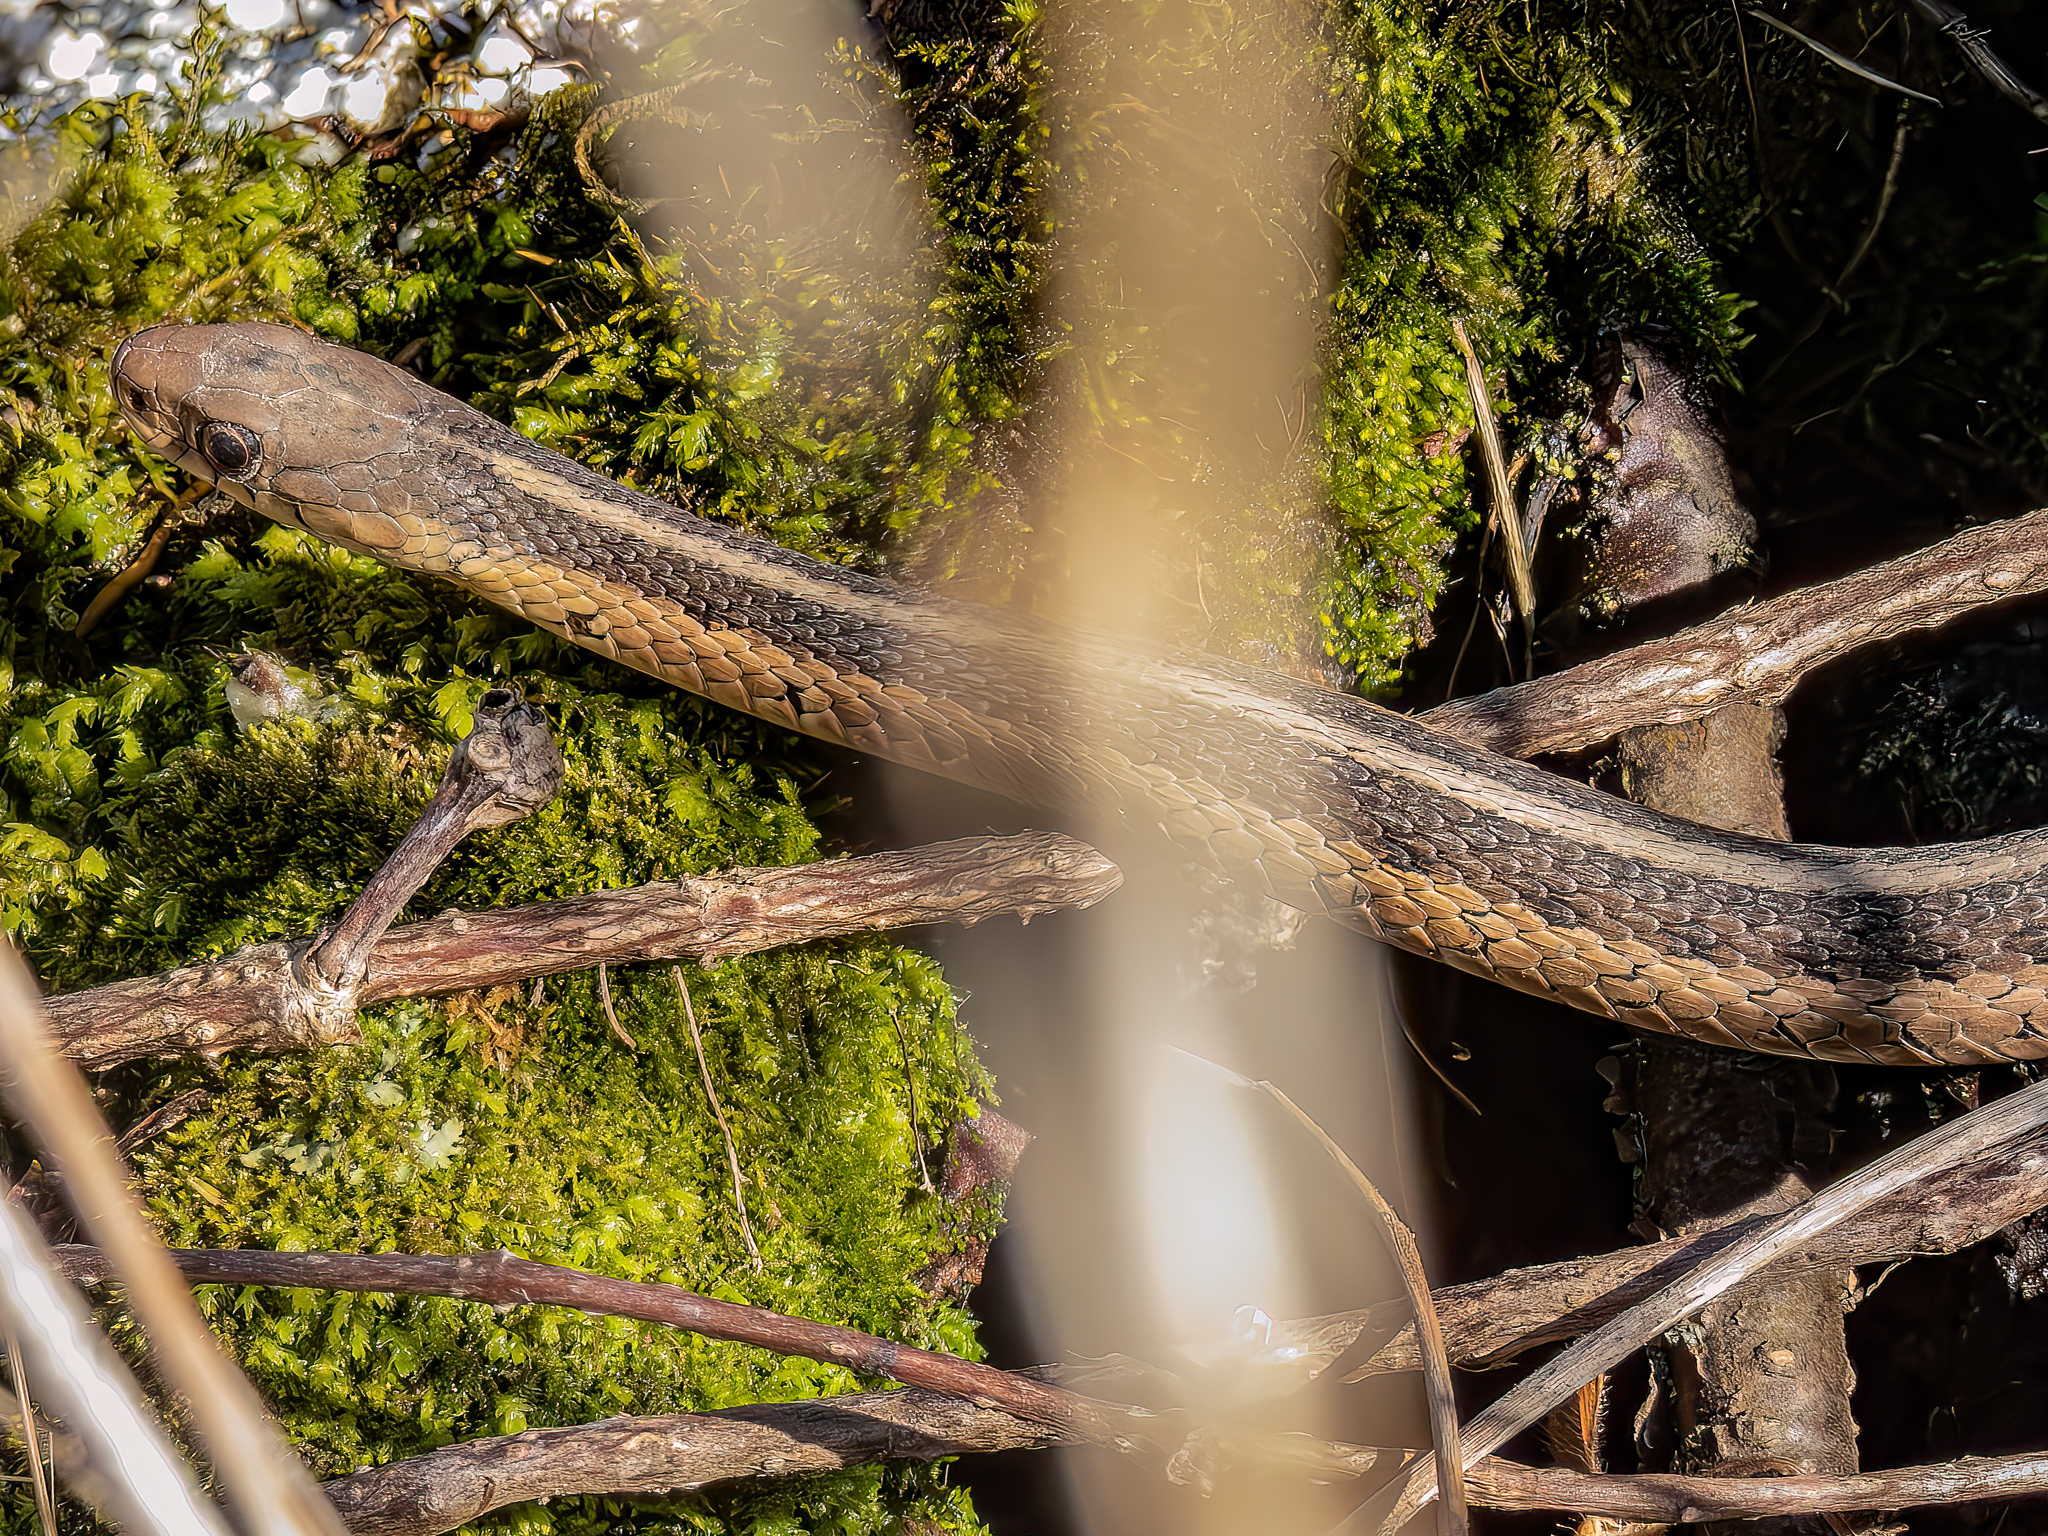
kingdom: Animalia
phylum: Chordata
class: Squamata
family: Colubridae
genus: Thamnophis
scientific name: Thamnophis sirtalis
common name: Common garter snake
